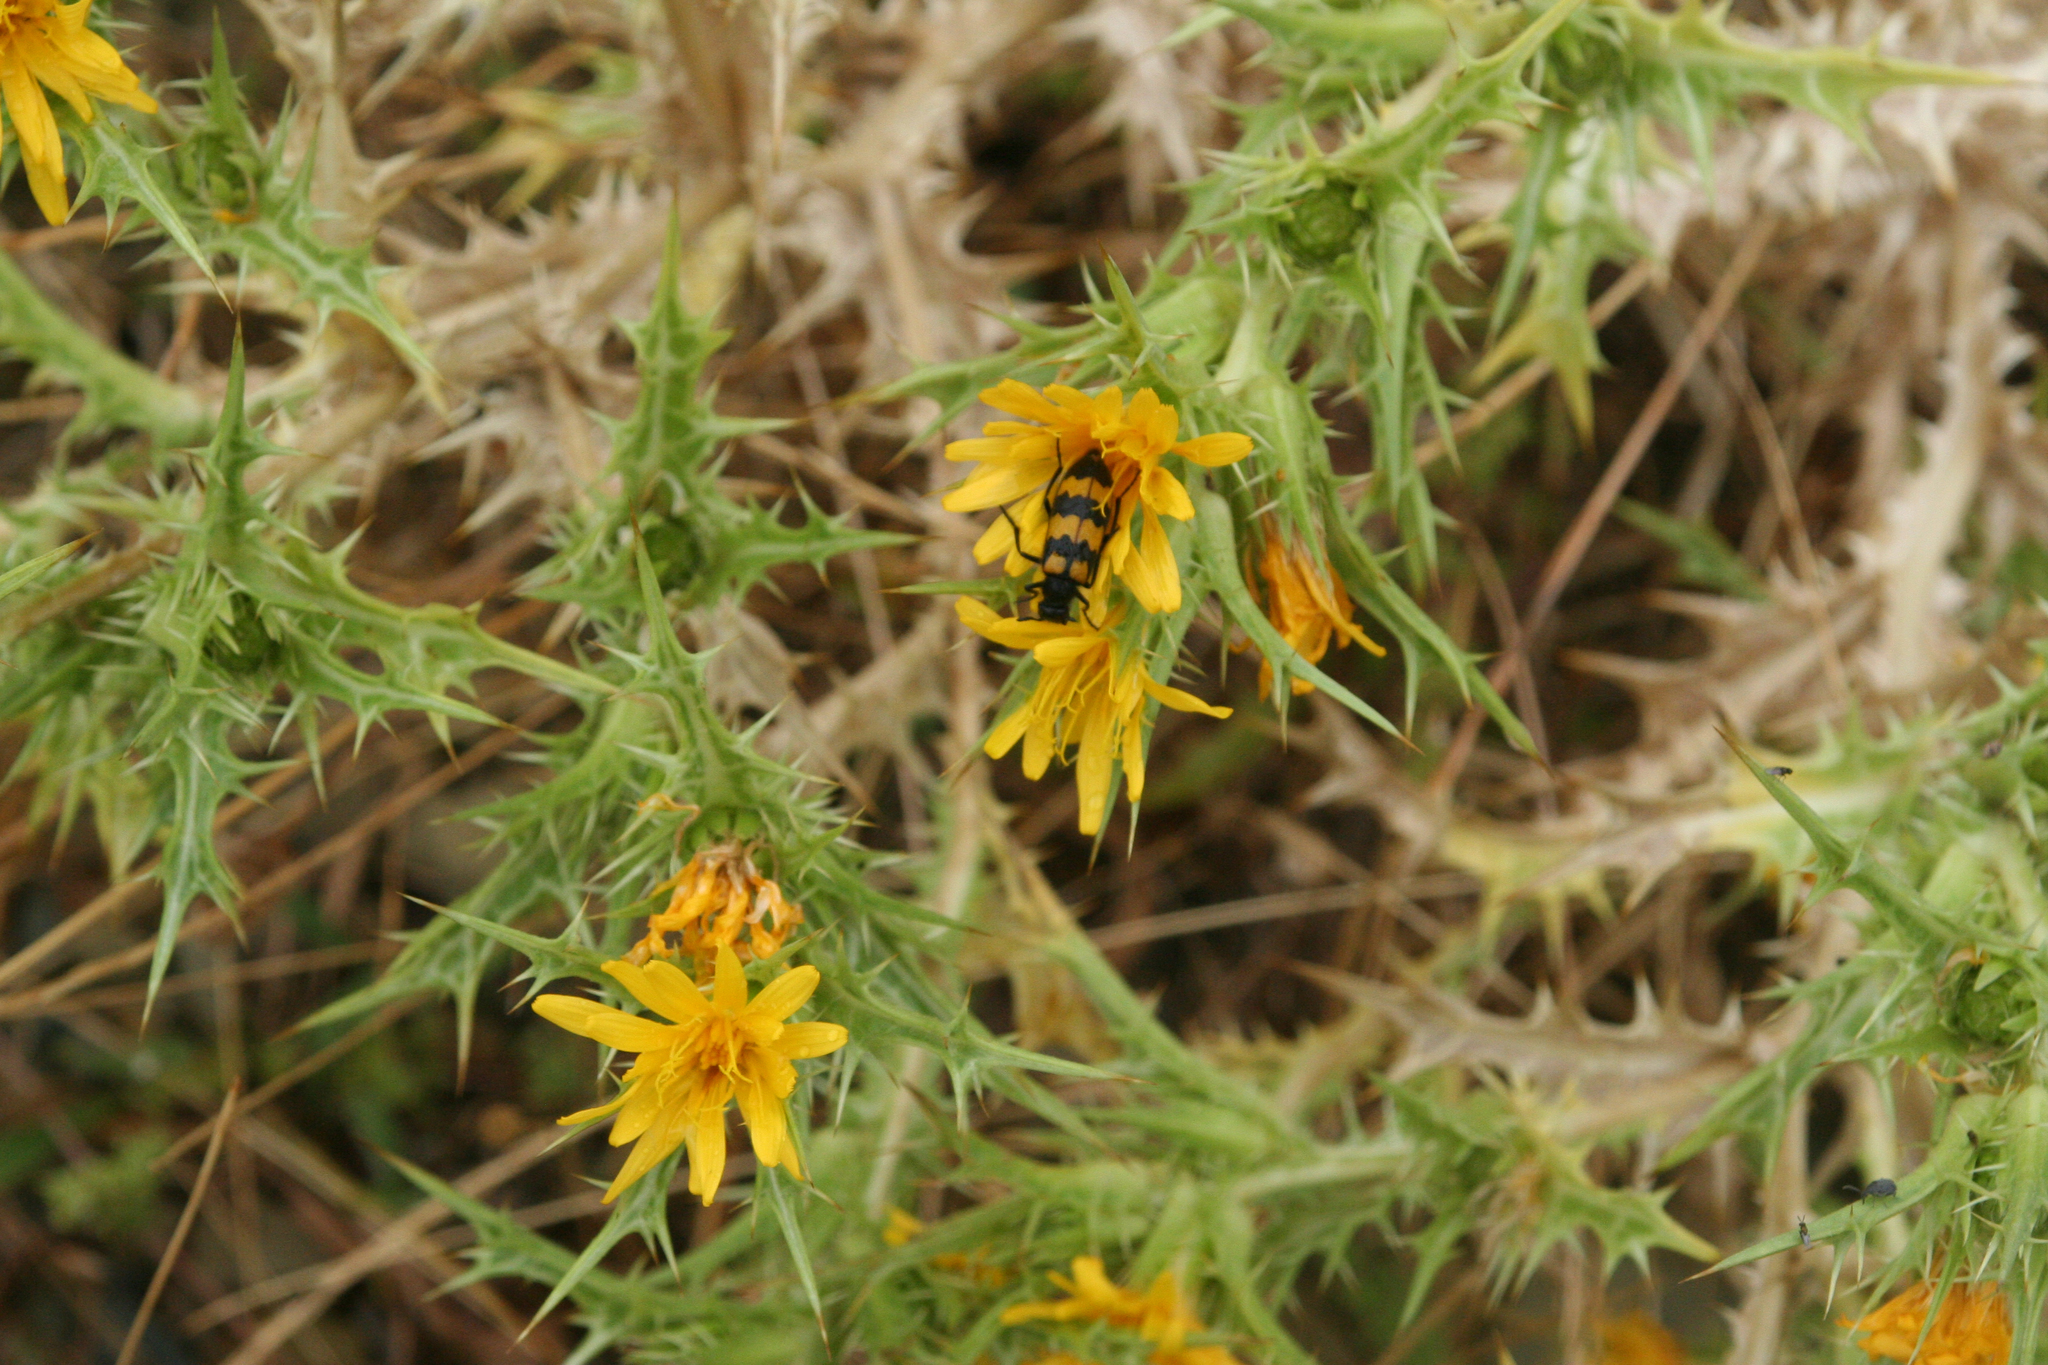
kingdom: Plantae
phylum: Tracheophyta
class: Magnoliopsida
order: Asterales
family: Asteraceae
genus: Scolymus
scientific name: Scolymus hispanicus
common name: Golden thistle
